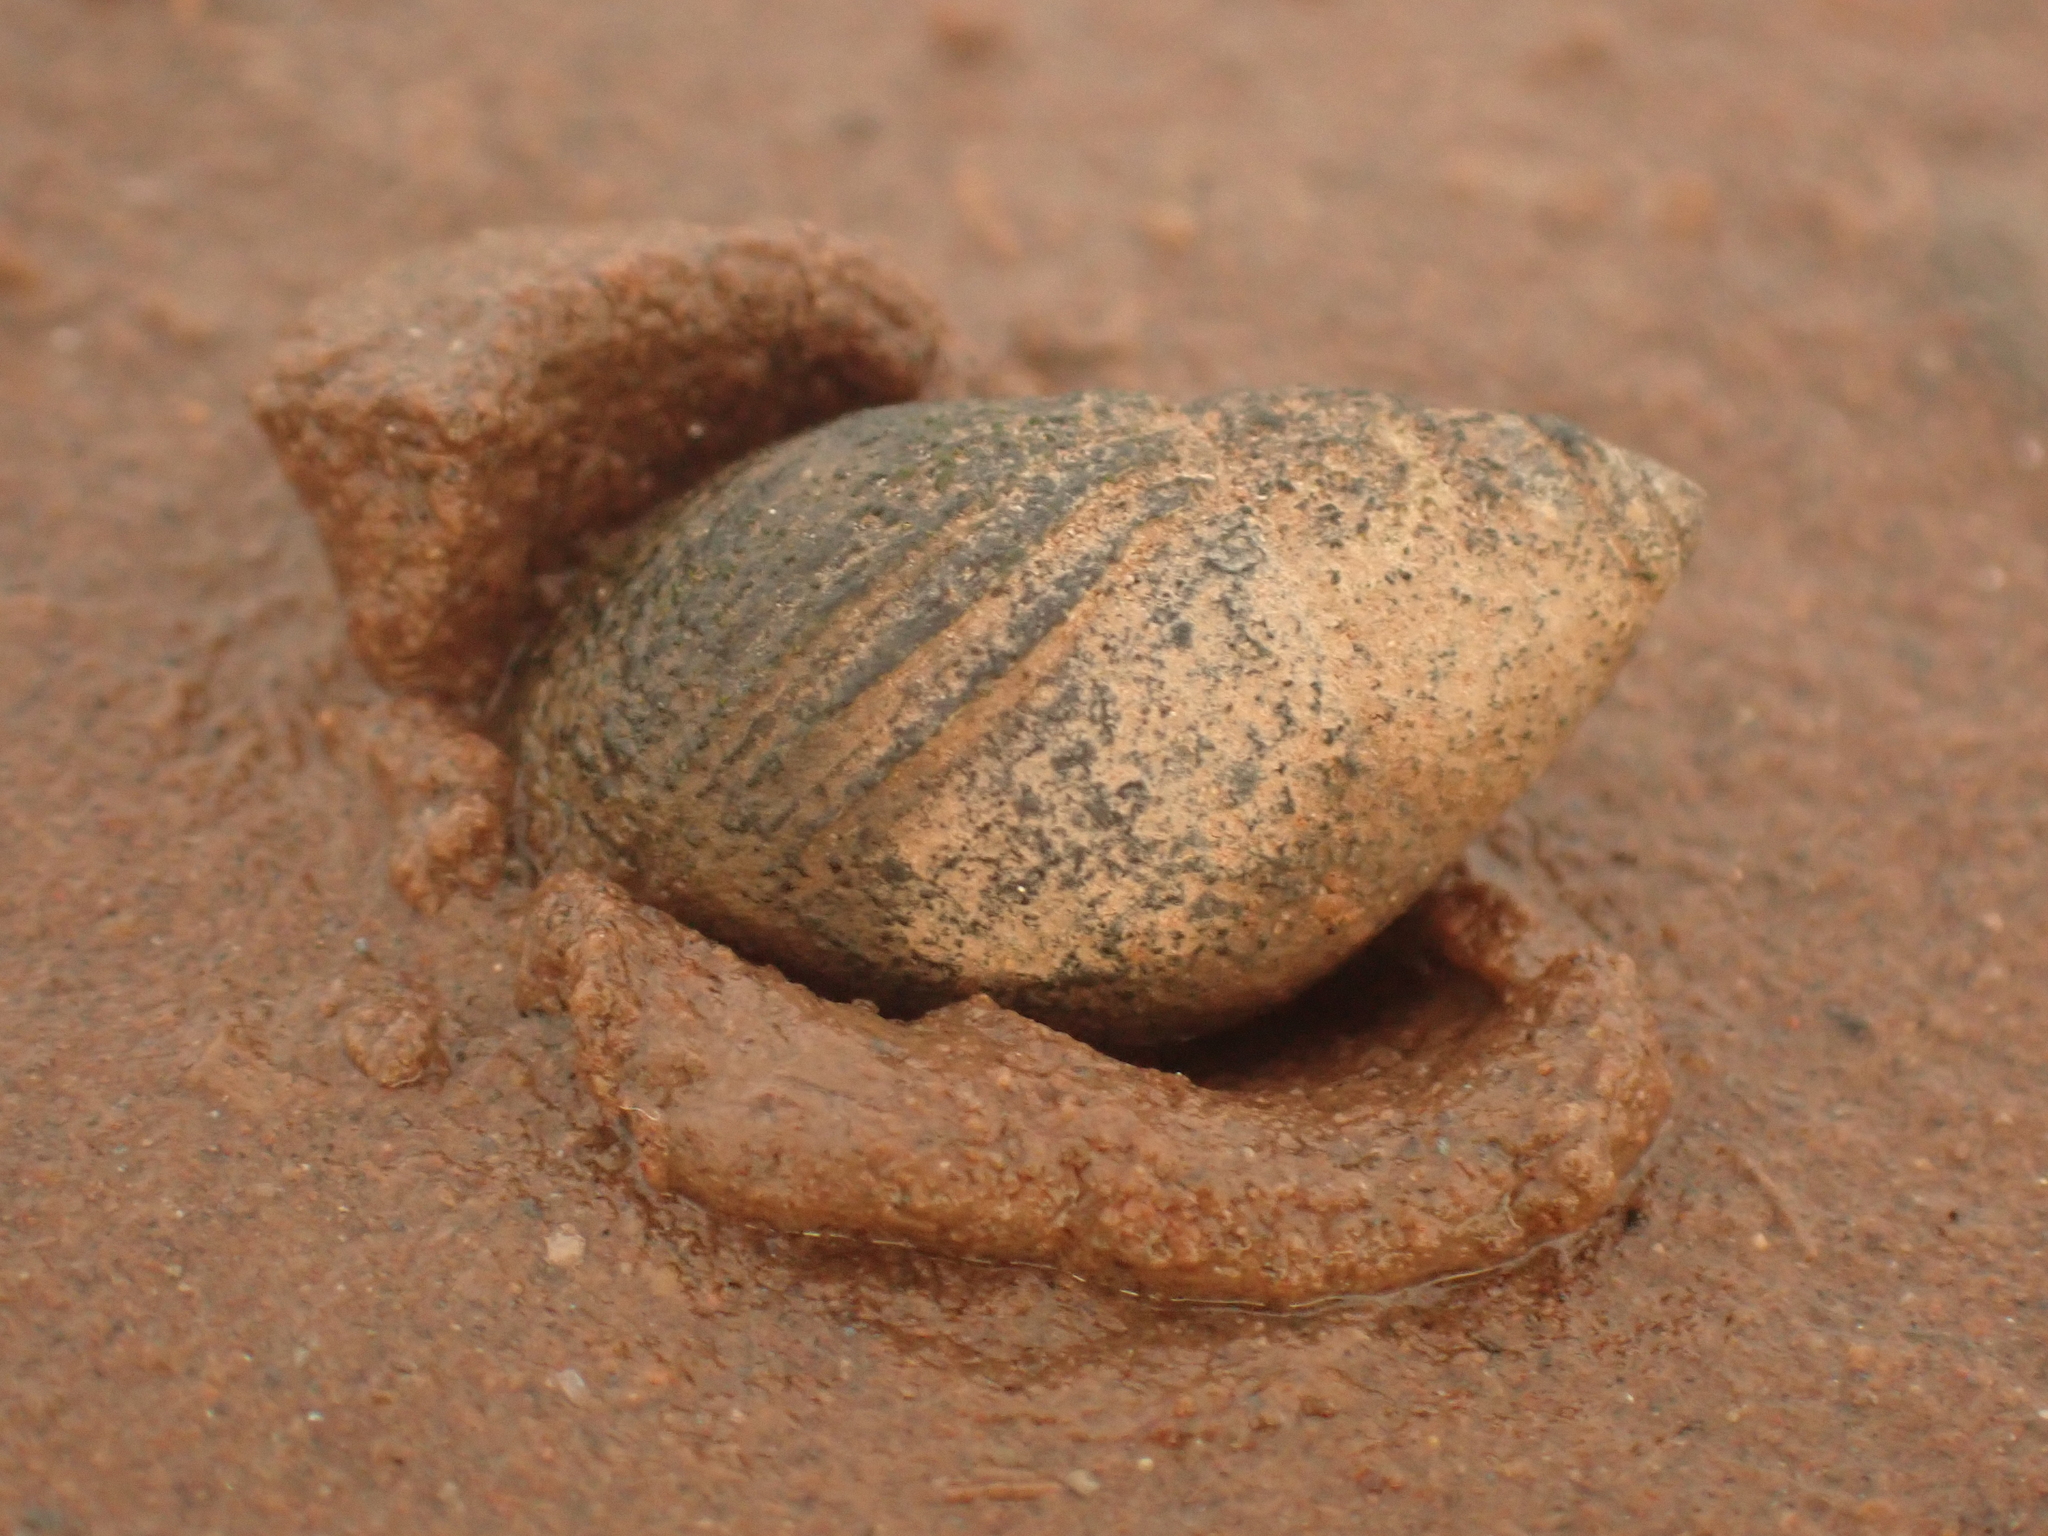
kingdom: Animalia
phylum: Mollusca
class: Gastropoda
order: Neogastropoda
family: Nassariidae
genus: Ilyanassa
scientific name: Ilyanassa obsoleta
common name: Eastern mudsnail
